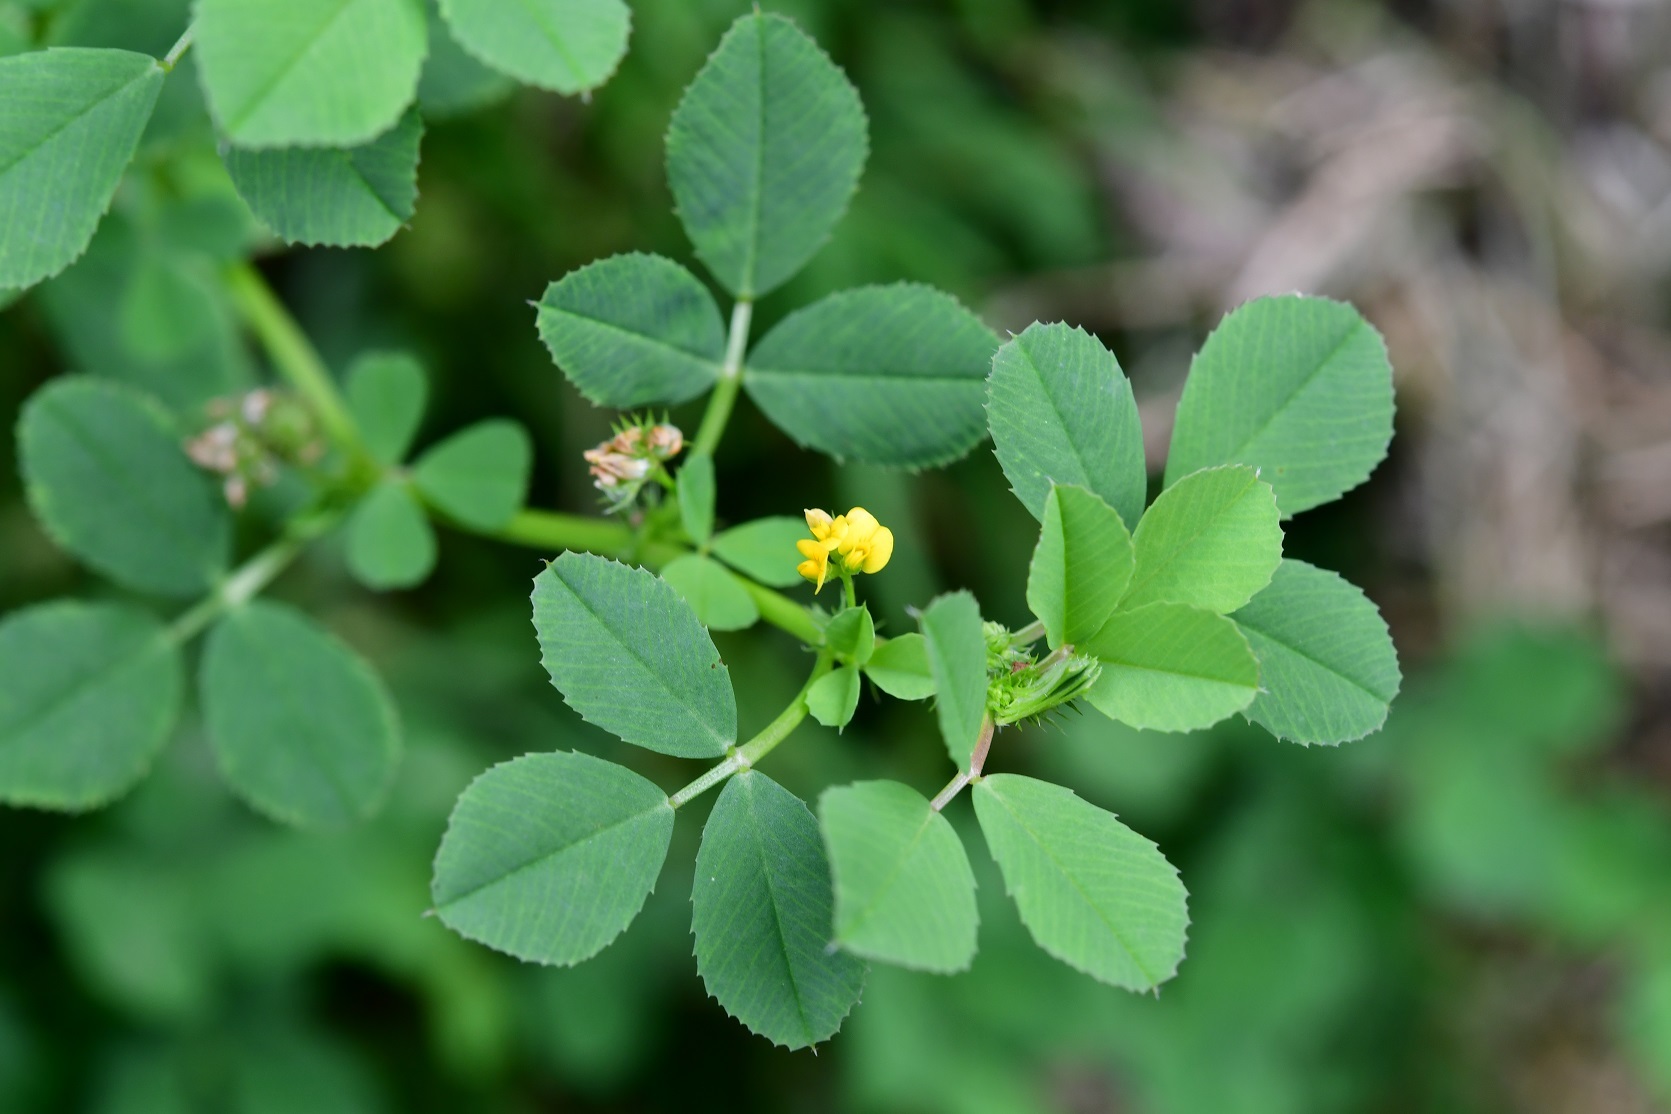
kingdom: Plantae
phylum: Tracheophyta
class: Magnoliopsida
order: Fabales
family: Fabaceae
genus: Medicago
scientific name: Medicago polymorpha
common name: Burclover
